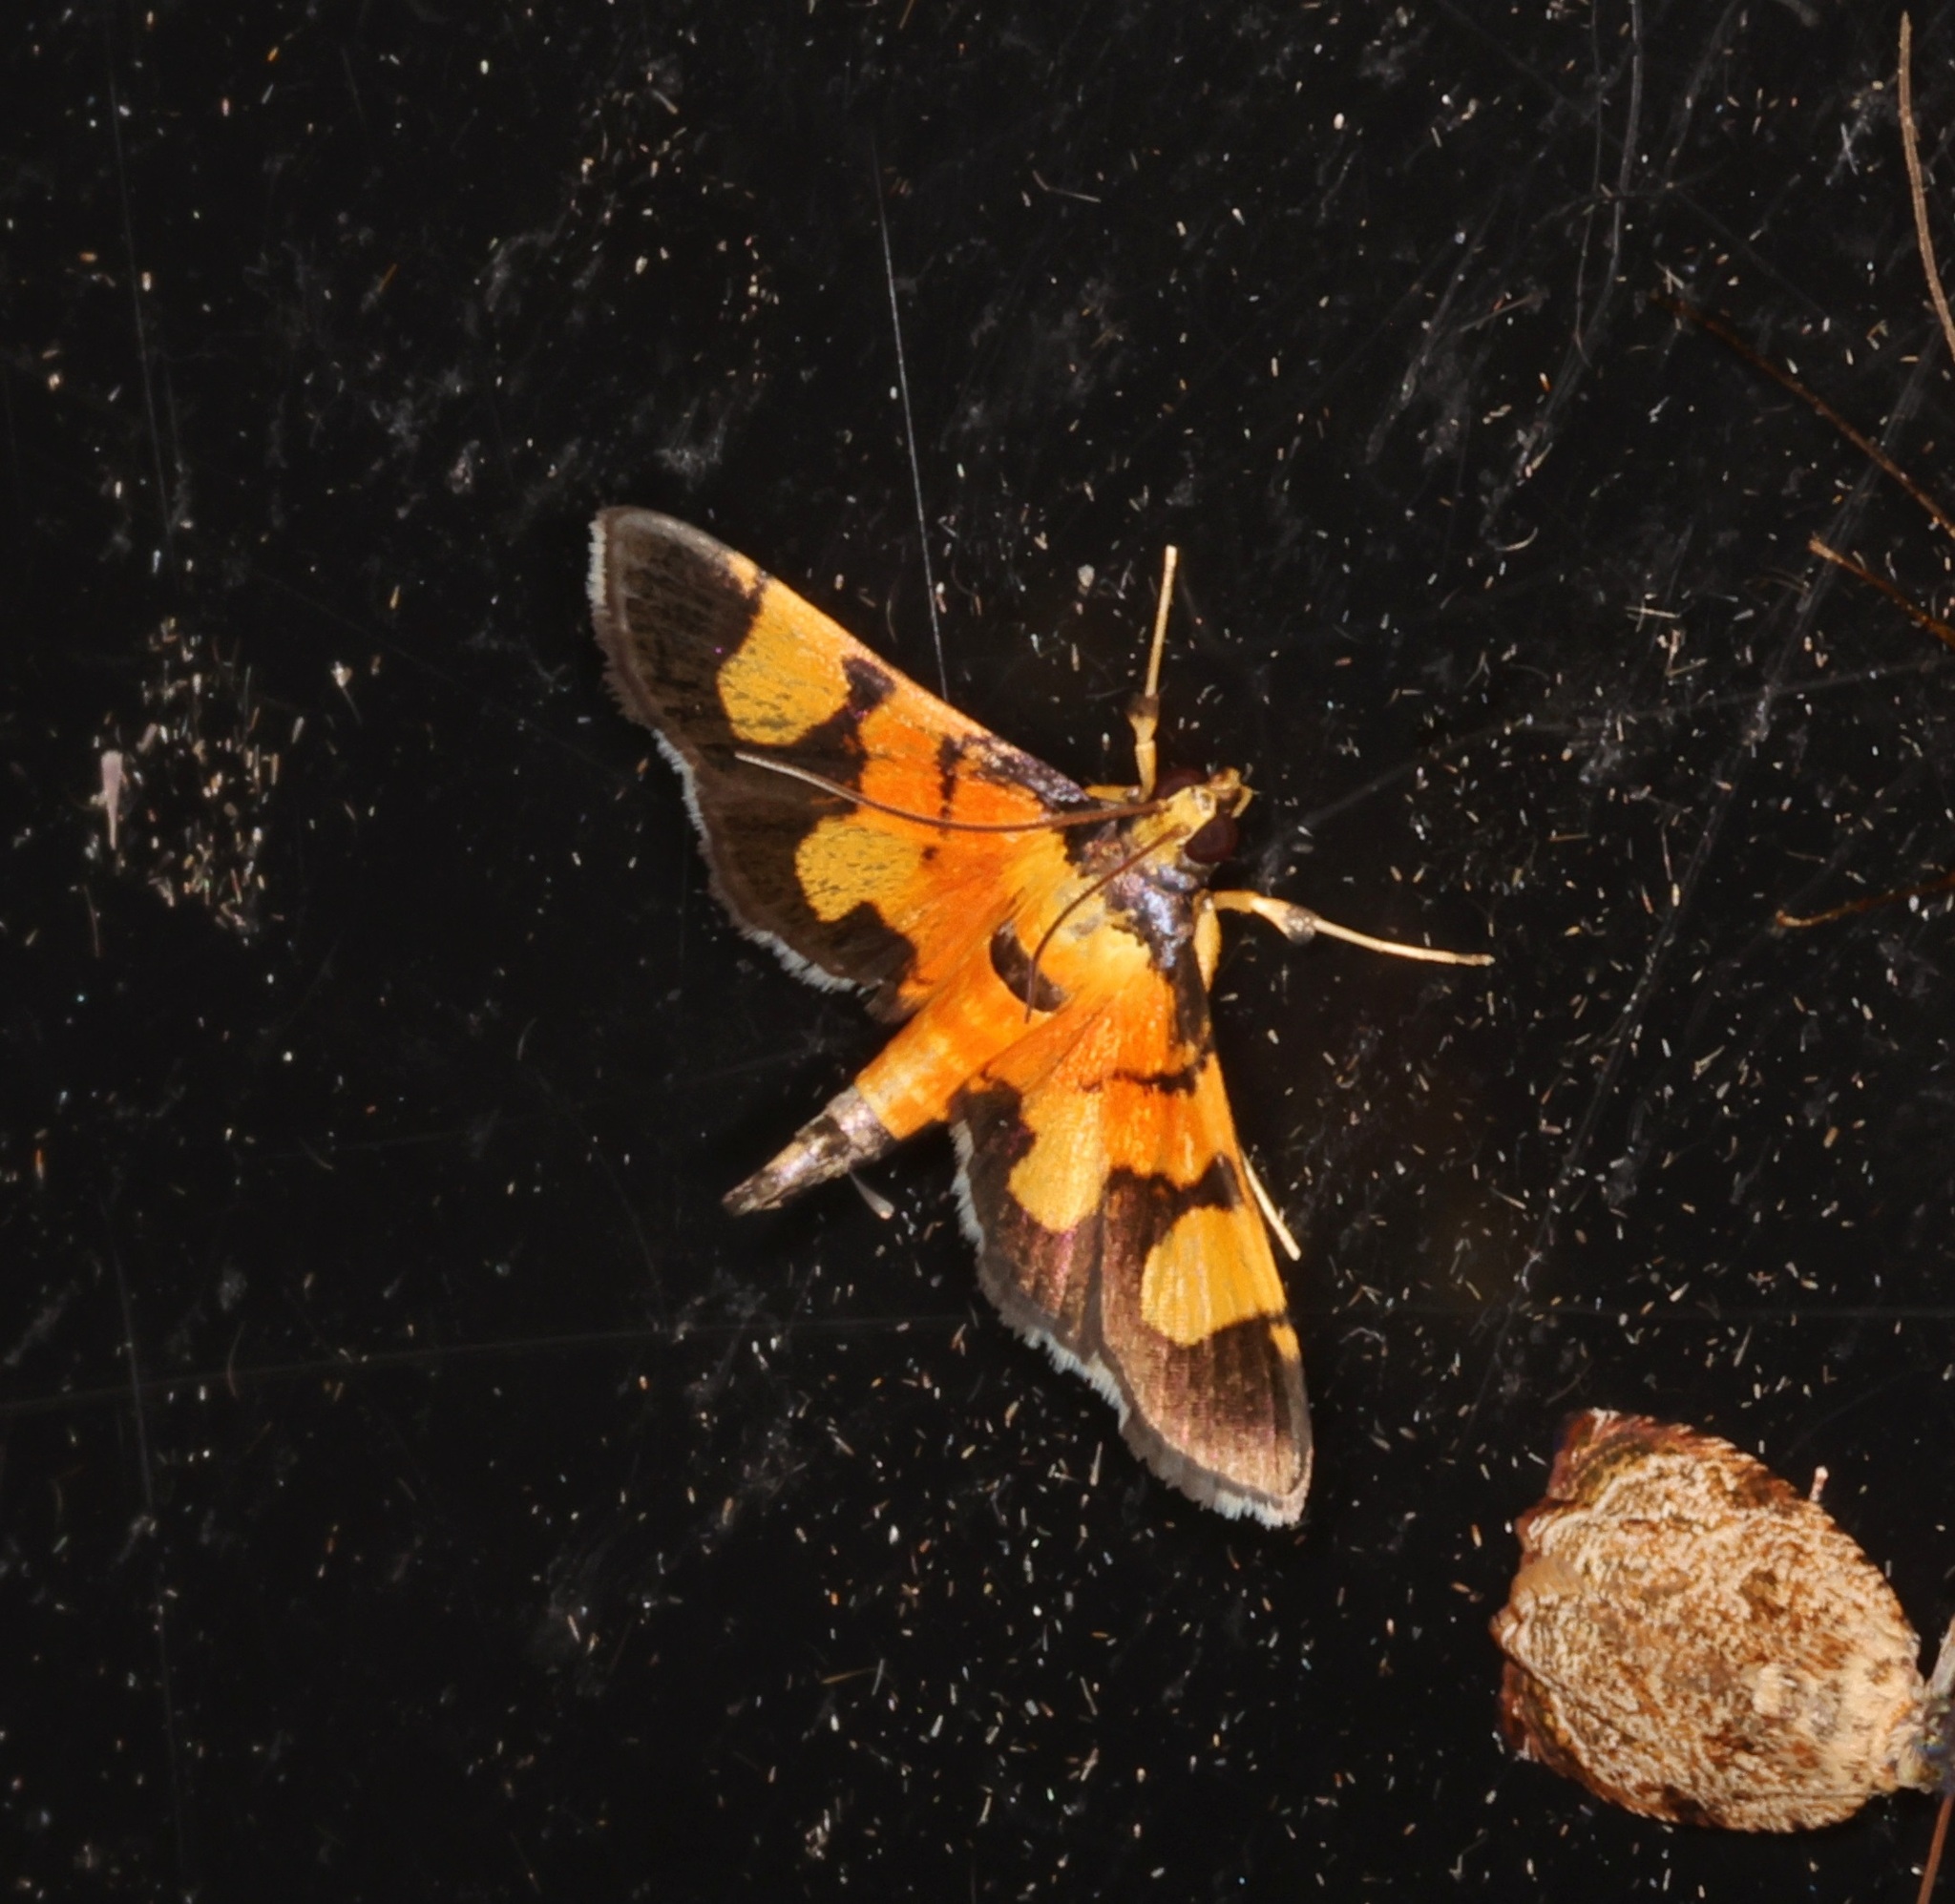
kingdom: Animalia
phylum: Arthropoda
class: Insecta
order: Lepidoptera
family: Crambidae
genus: Aethaloessa
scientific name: Aethaloessa calidalis
